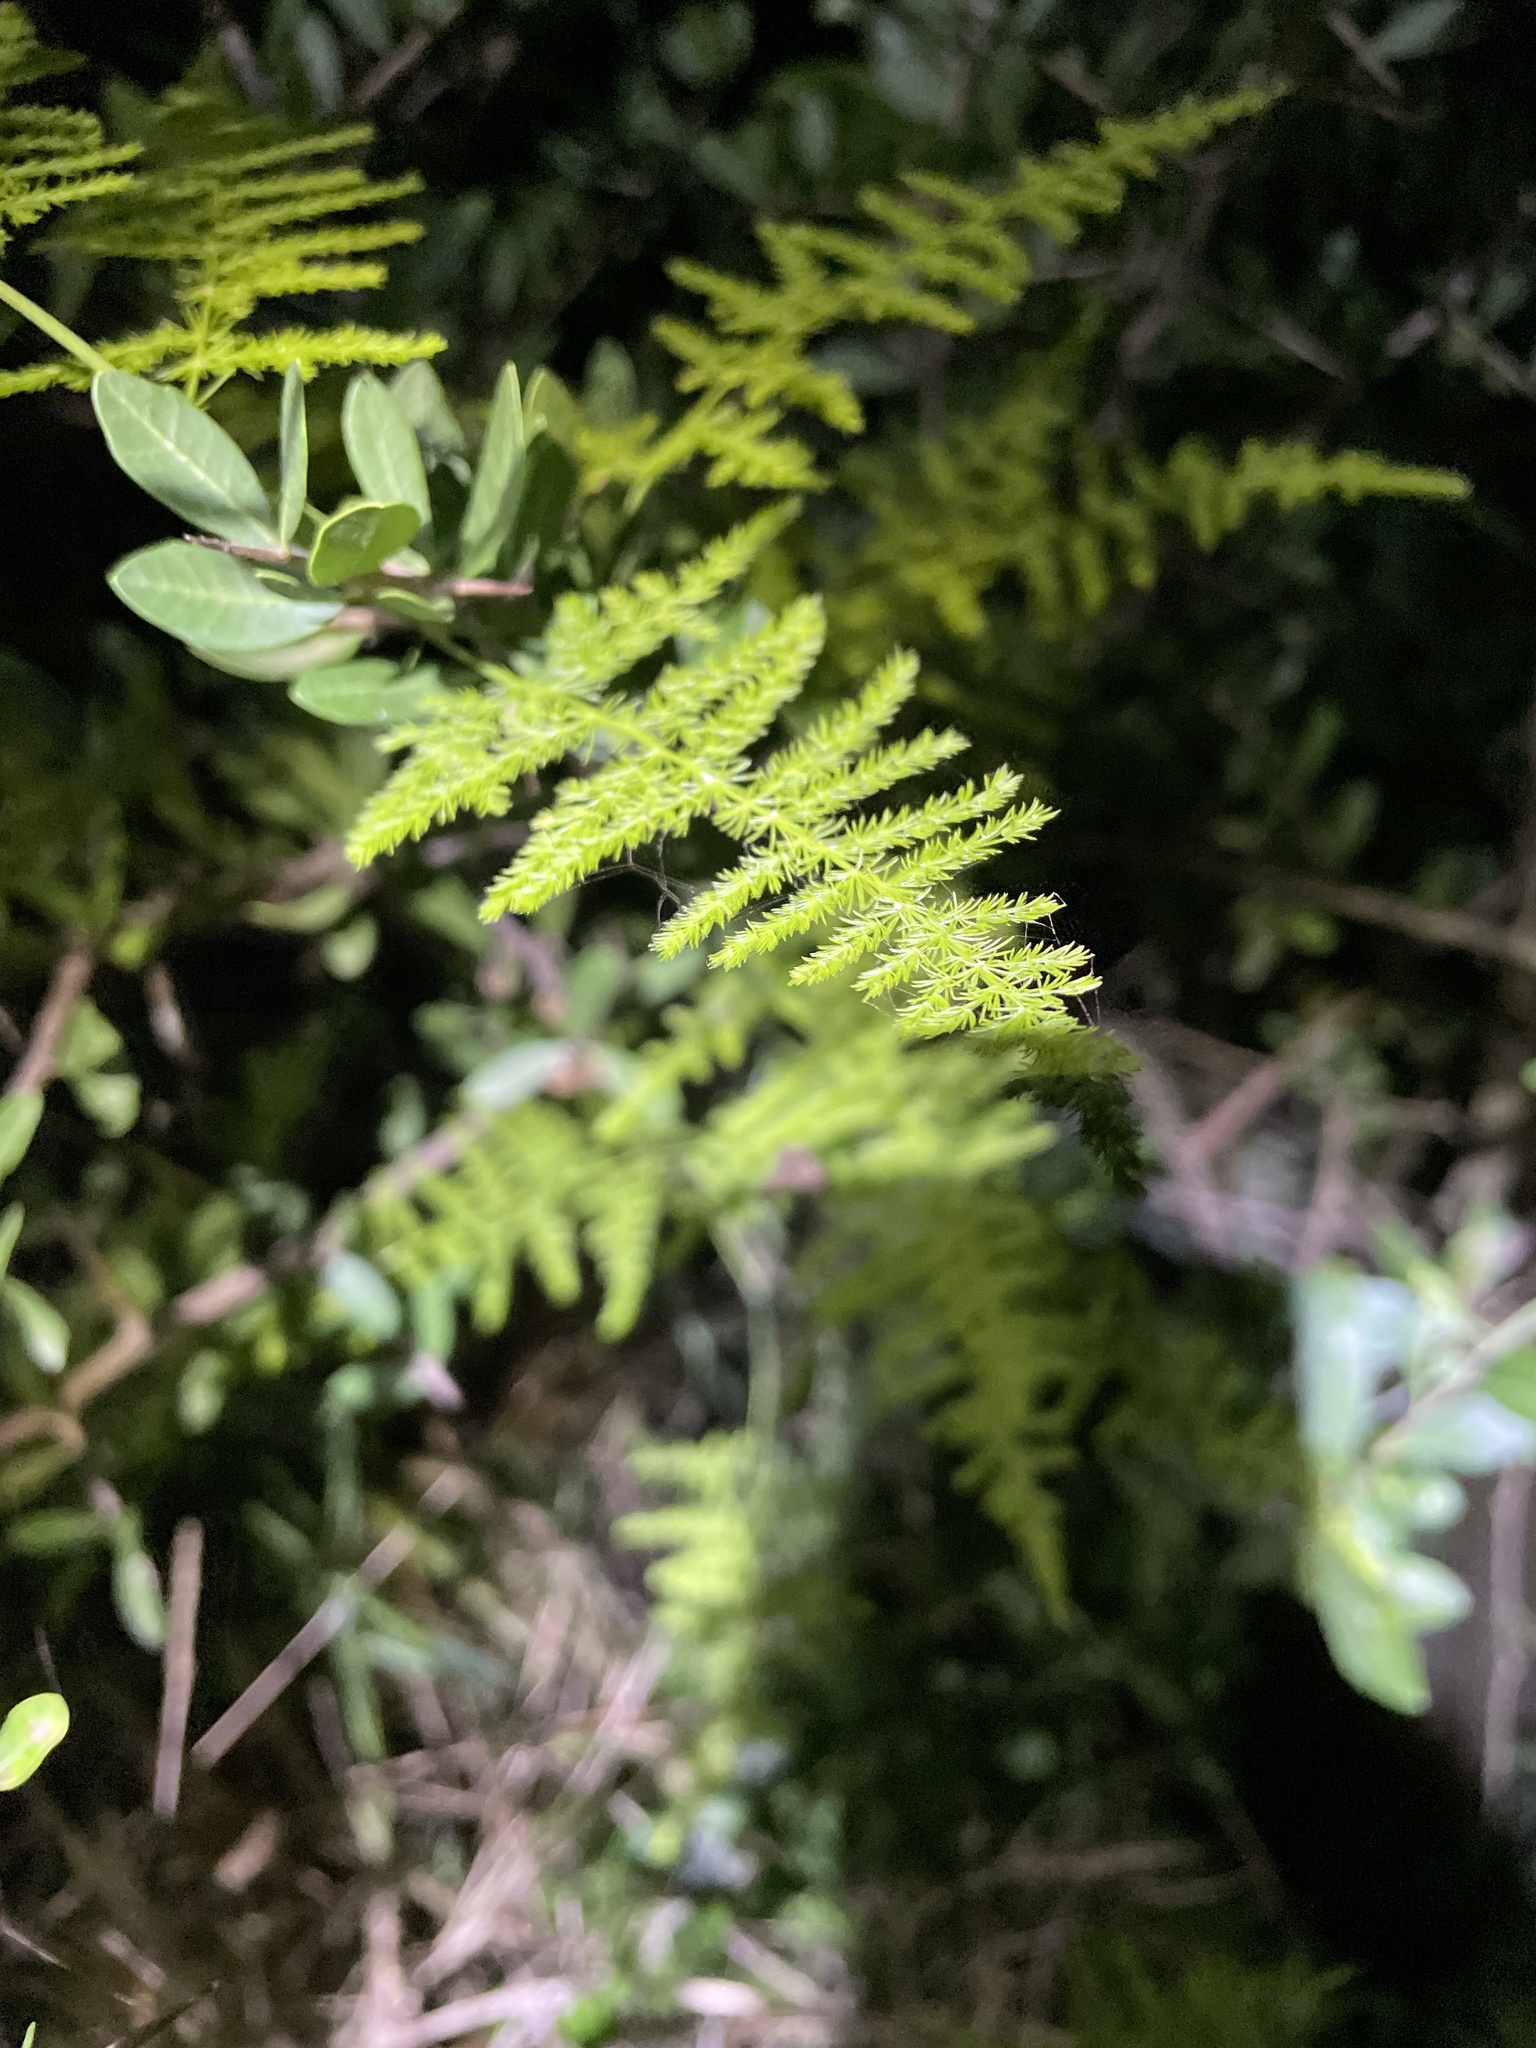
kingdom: Plantae
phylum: Tracheophyta
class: Liliopsida
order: Asparagales
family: Asparagaceae
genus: Asparagus
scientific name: Asparagus setaceus
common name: Common asparagus fern
